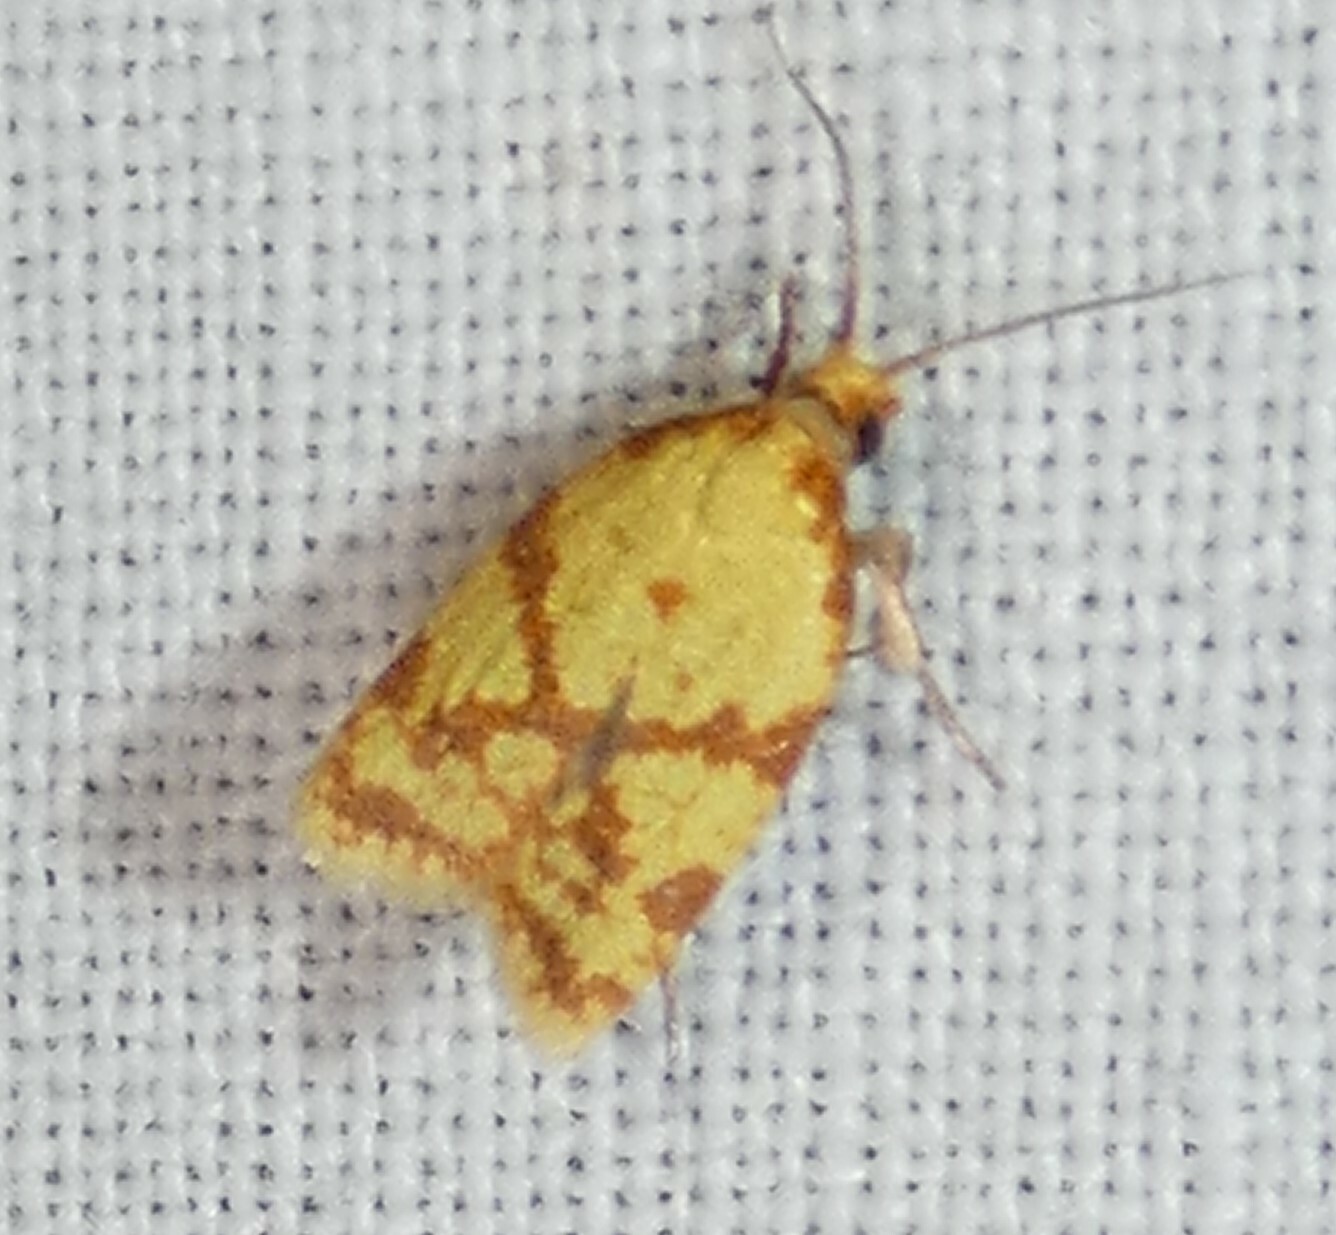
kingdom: Animalia
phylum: Arthropoda
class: Insecta
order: Lepidoptera
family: Tortricidae
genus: Sparganothis
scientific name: Sparganothis sulfureana
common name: Sparganothis fruitworm moth
